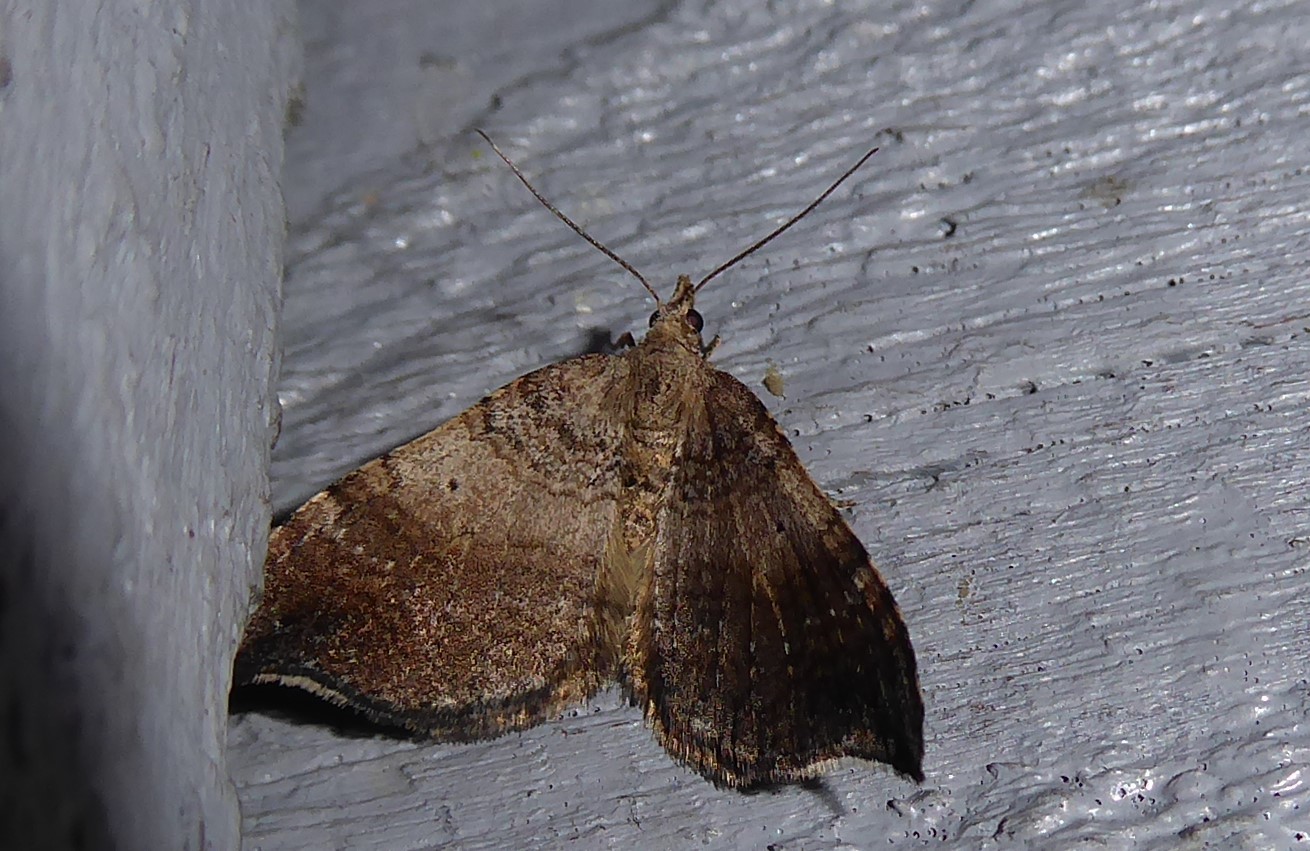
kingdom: Animalia
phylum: Arthropoda
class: Insecta
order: Lepidoptera
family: Geometridae
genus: Homodotis
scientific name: Homodotis megaspilata
